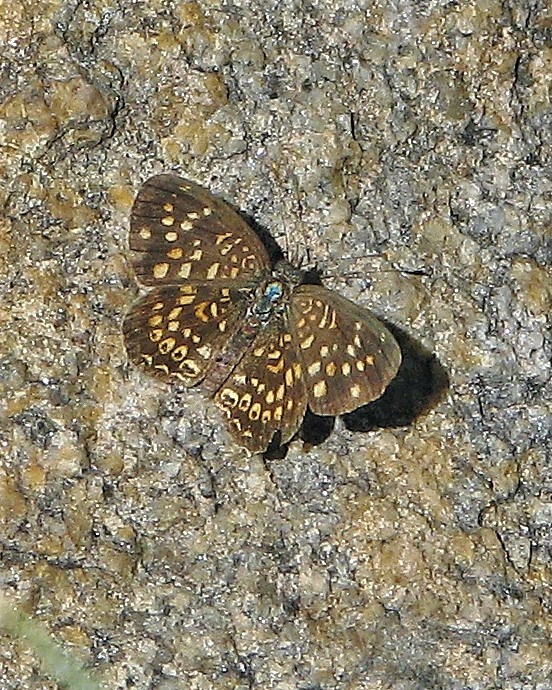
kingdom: Animalia
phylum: Arthropoda
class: Insecta
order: Lepidoptera
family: Nymphalidae
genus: Phystis
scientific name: Phystis simois
